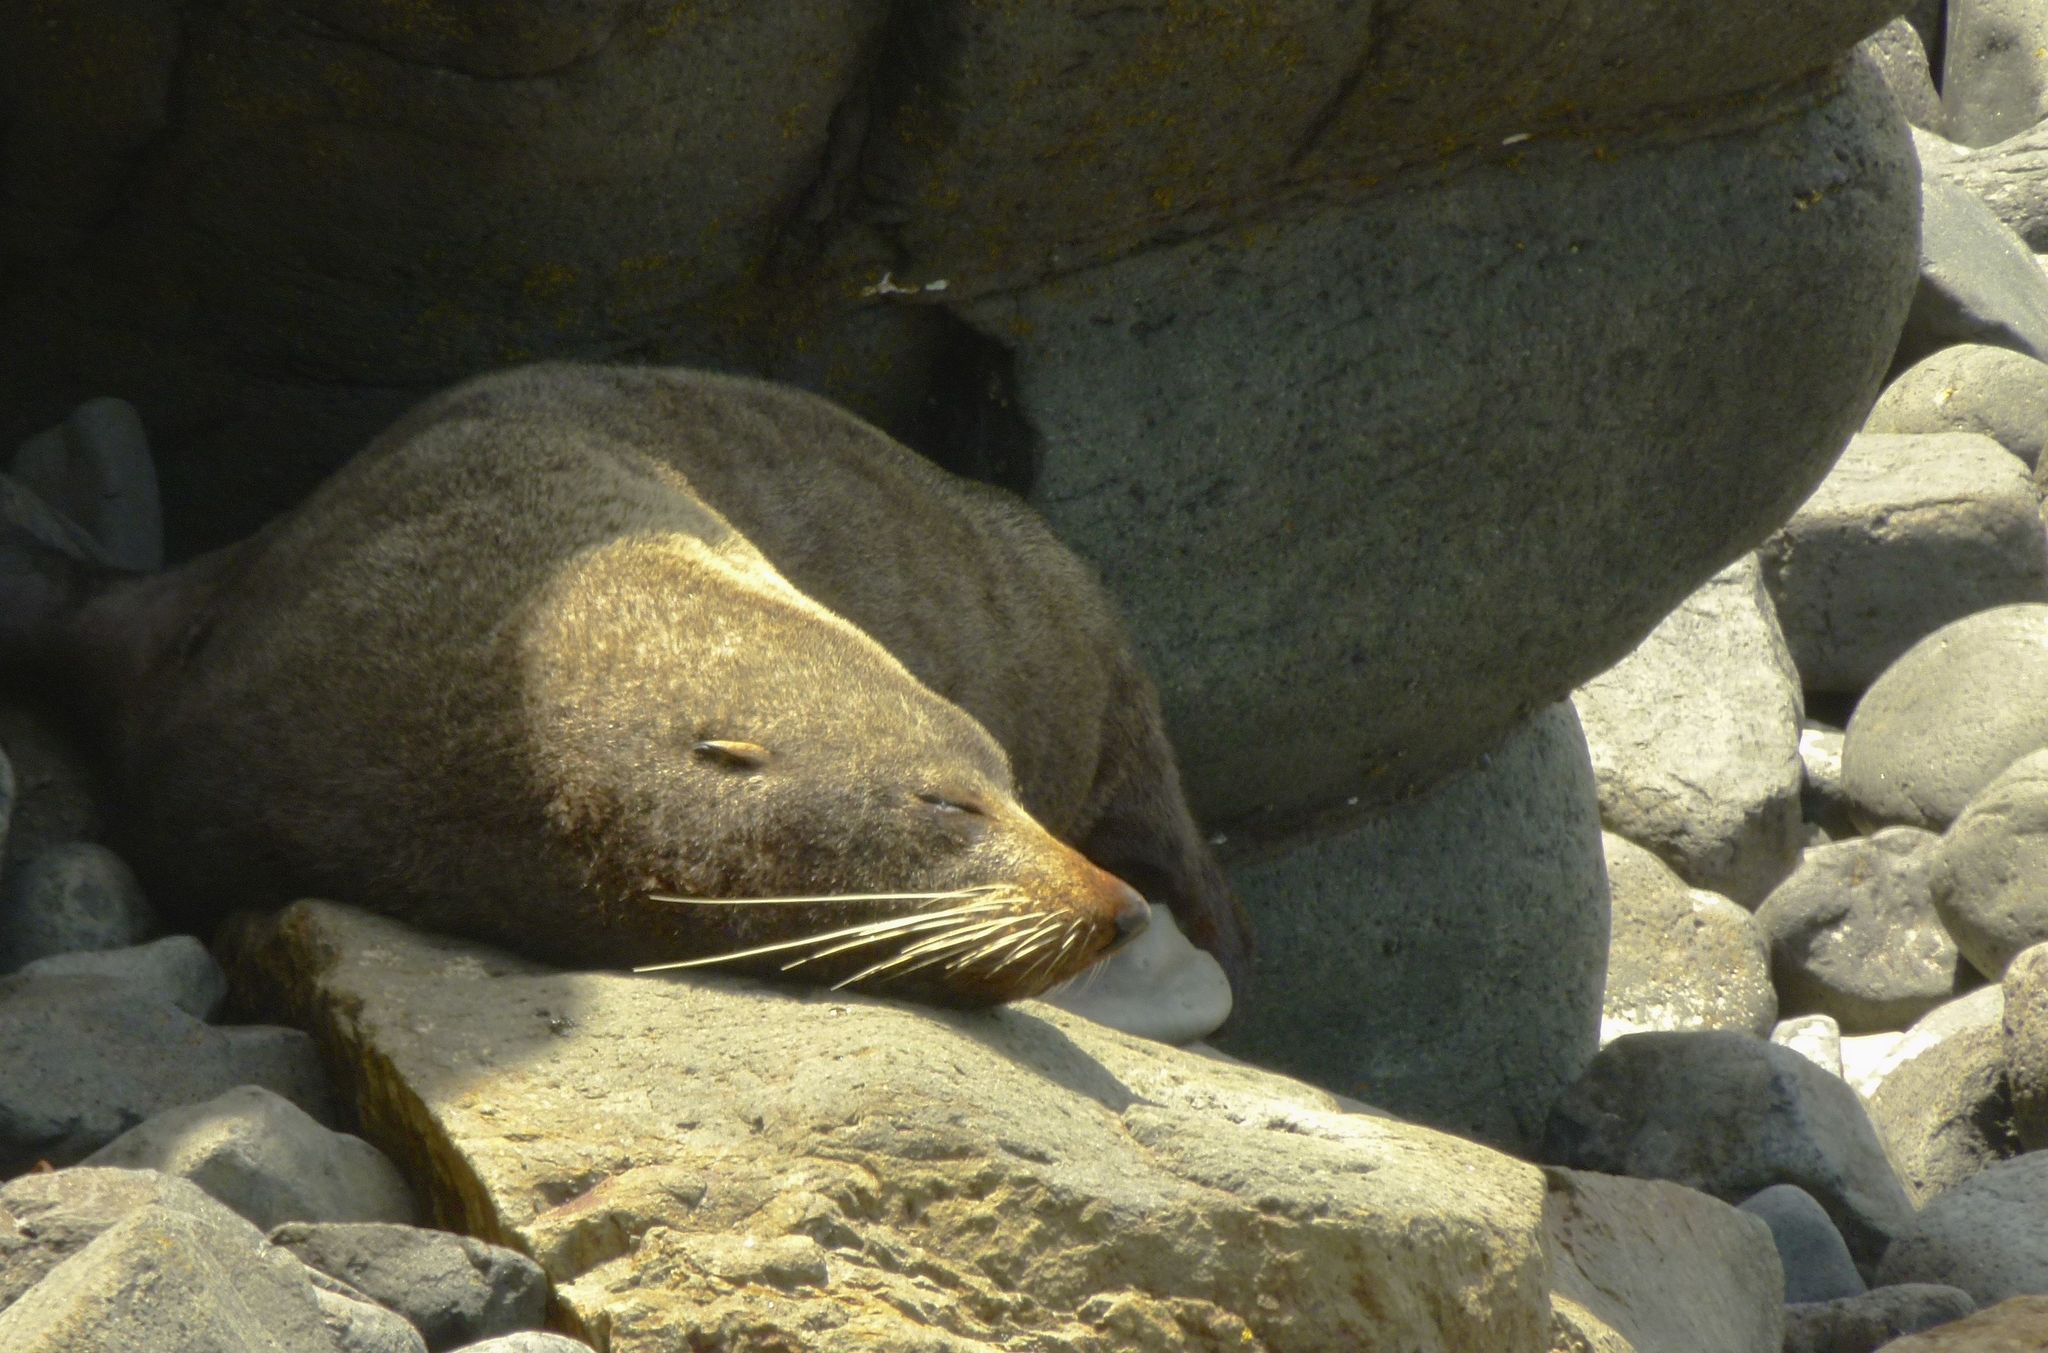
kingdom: Animalia
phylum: Chordata
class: Mammalia
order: Carnivora
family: Otariidae
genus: Arctocephalus
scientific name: Arctocephalus forsteri
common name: New zealand fur seal
